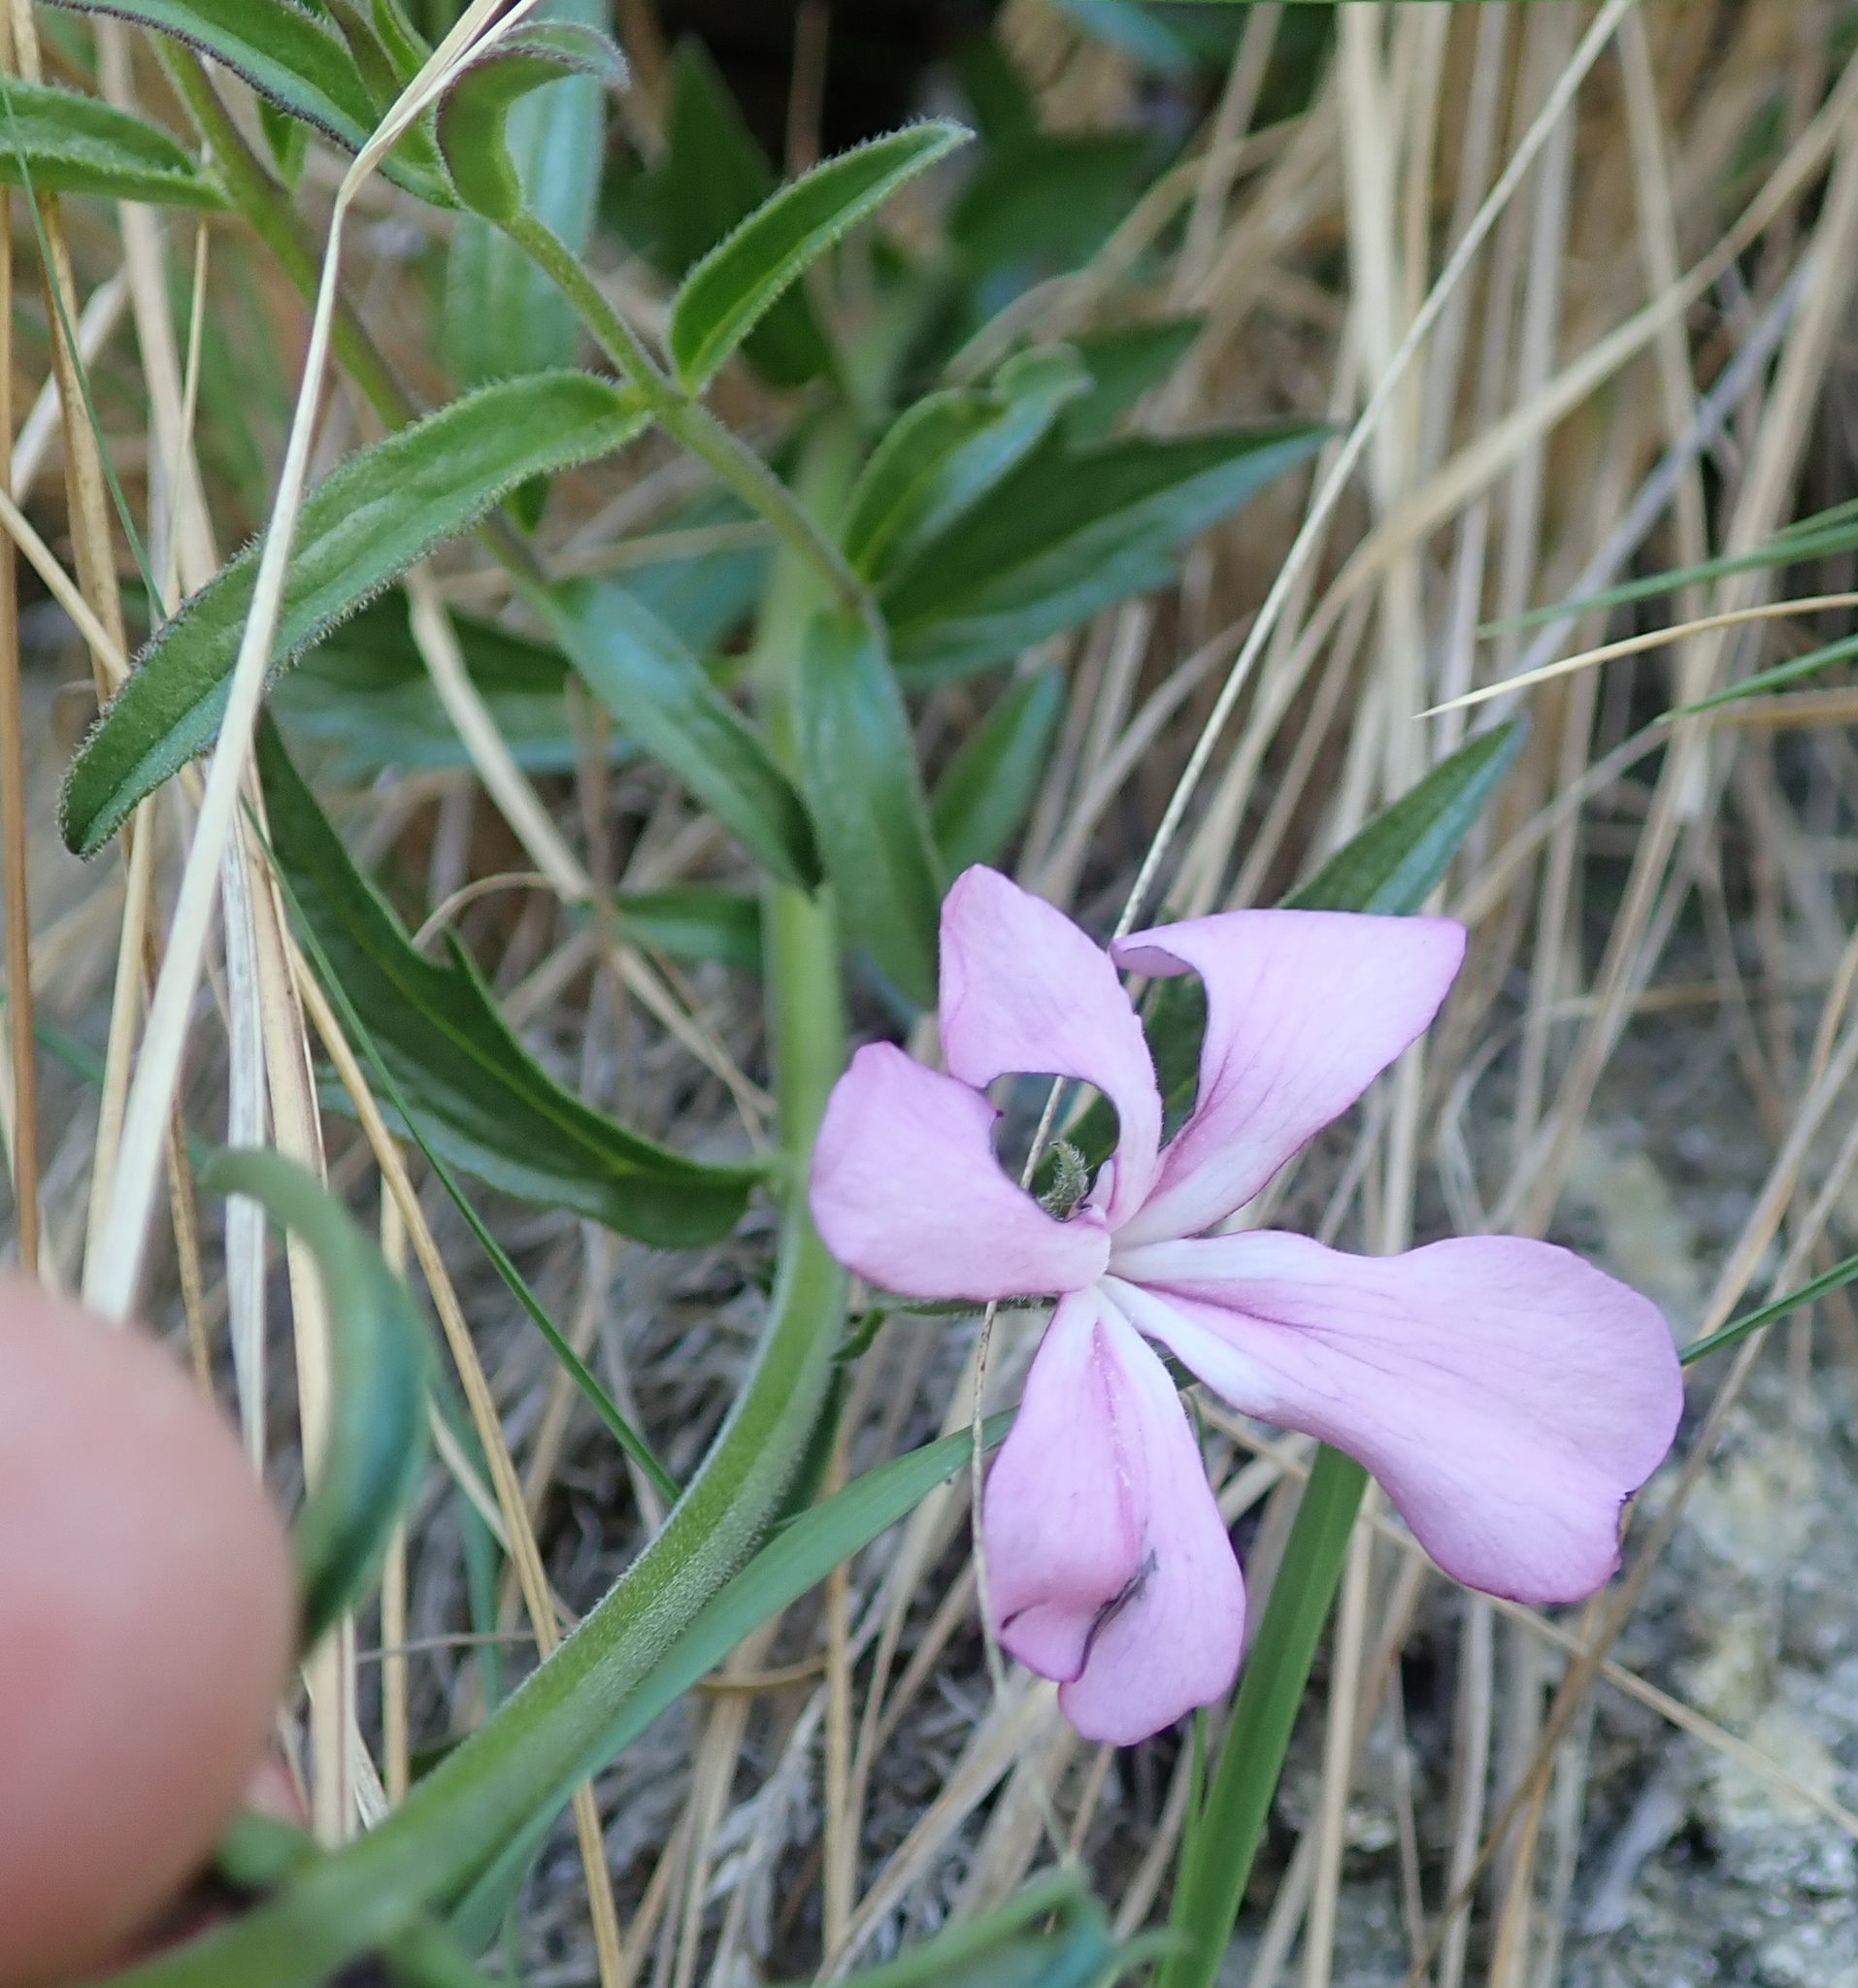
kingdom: Plantae
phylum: Tracheophyta
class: Magnoliopsida
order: Lamiales
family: Orobanchaceae
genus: Cycnium
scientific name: Cycnium racemosum
